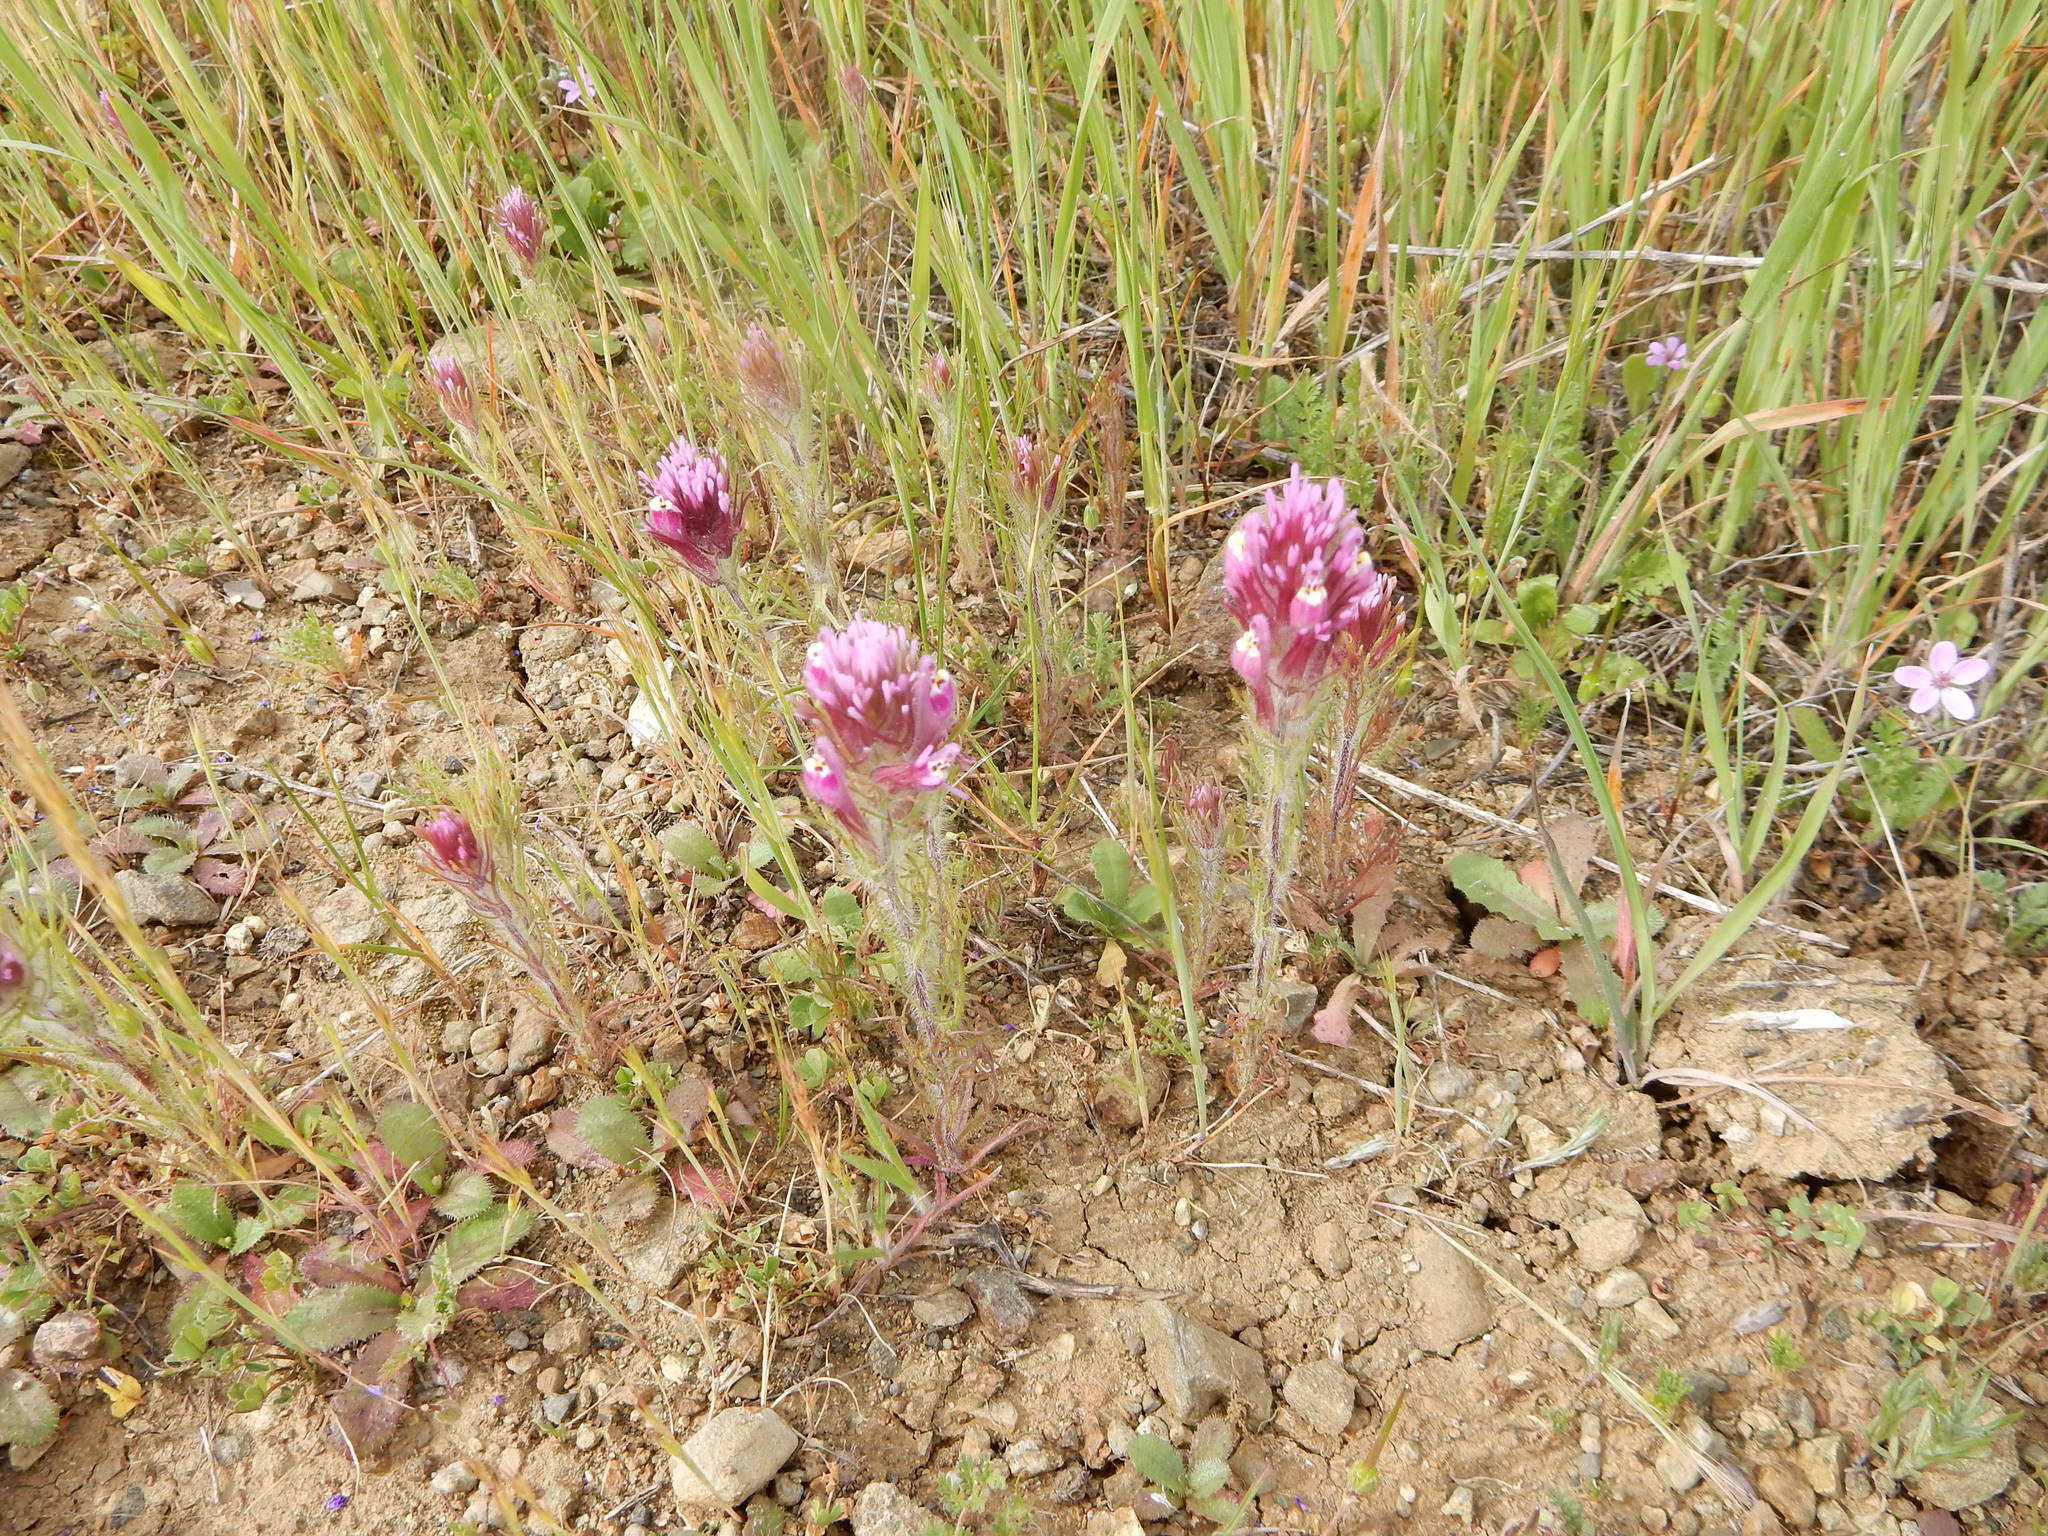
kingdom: Plantae
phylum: Tracheophyta
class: Magnoliopsida
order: Lamiales
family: Orobanchaceae
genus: Castilleja
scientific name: Castilleja exserta
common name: Purple owl-clover
